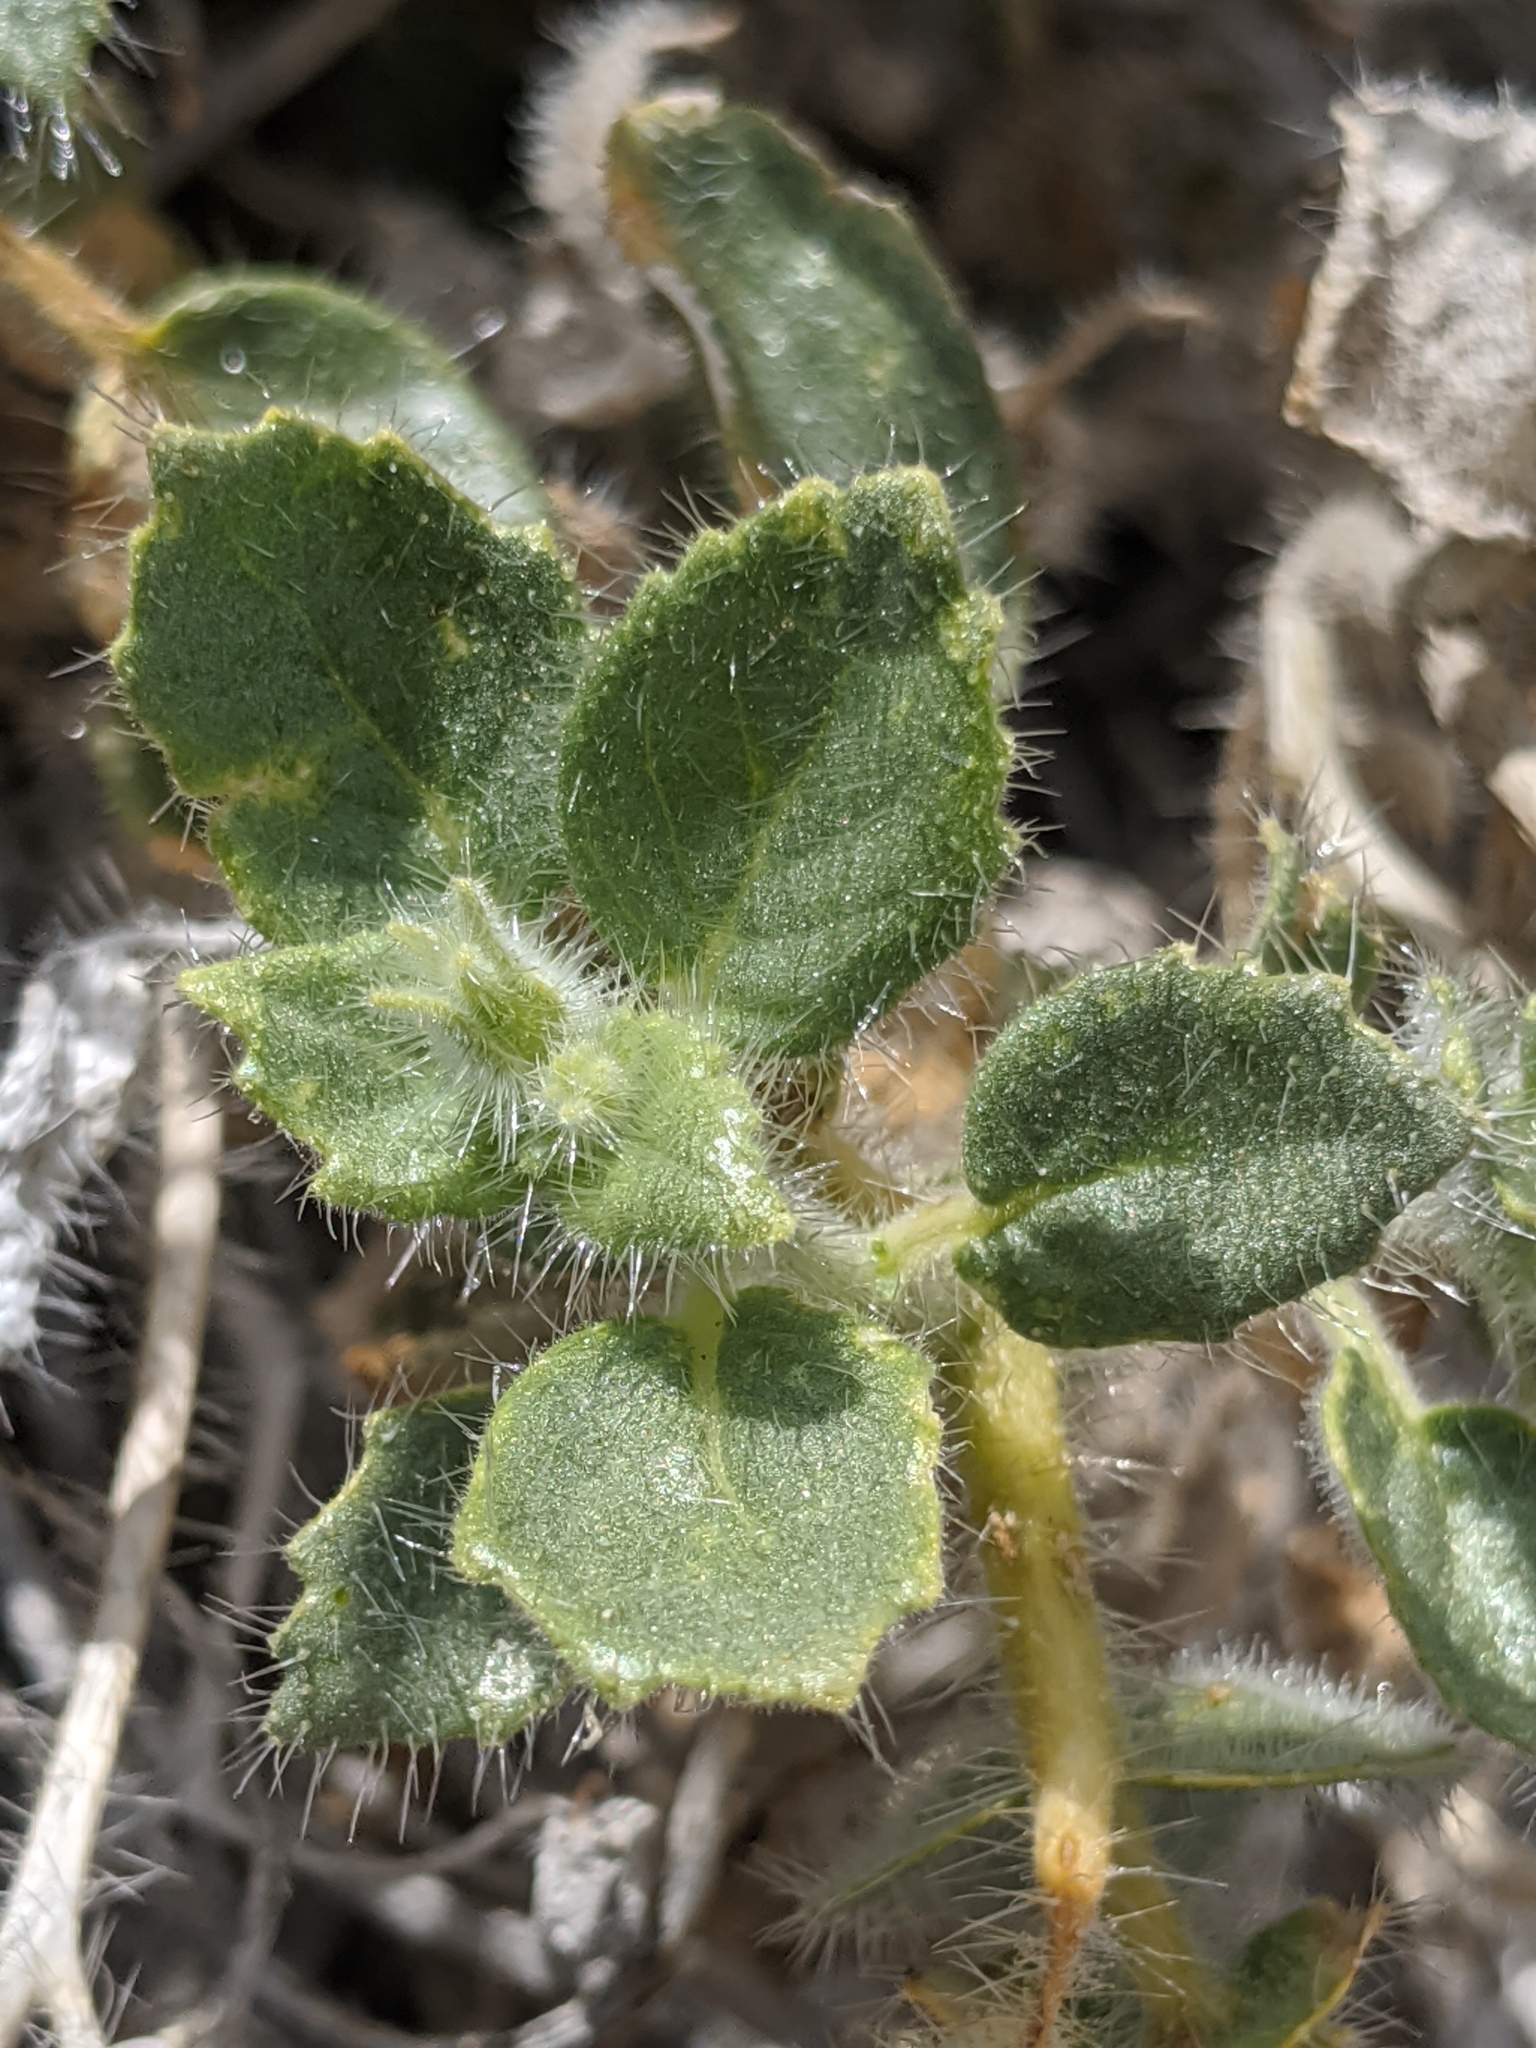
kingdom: Plantae
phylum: Tracheophyta
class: Magnoliopsida
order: Cornales
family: Loasaceae
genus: Eucnide
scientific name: Eucnide urens
